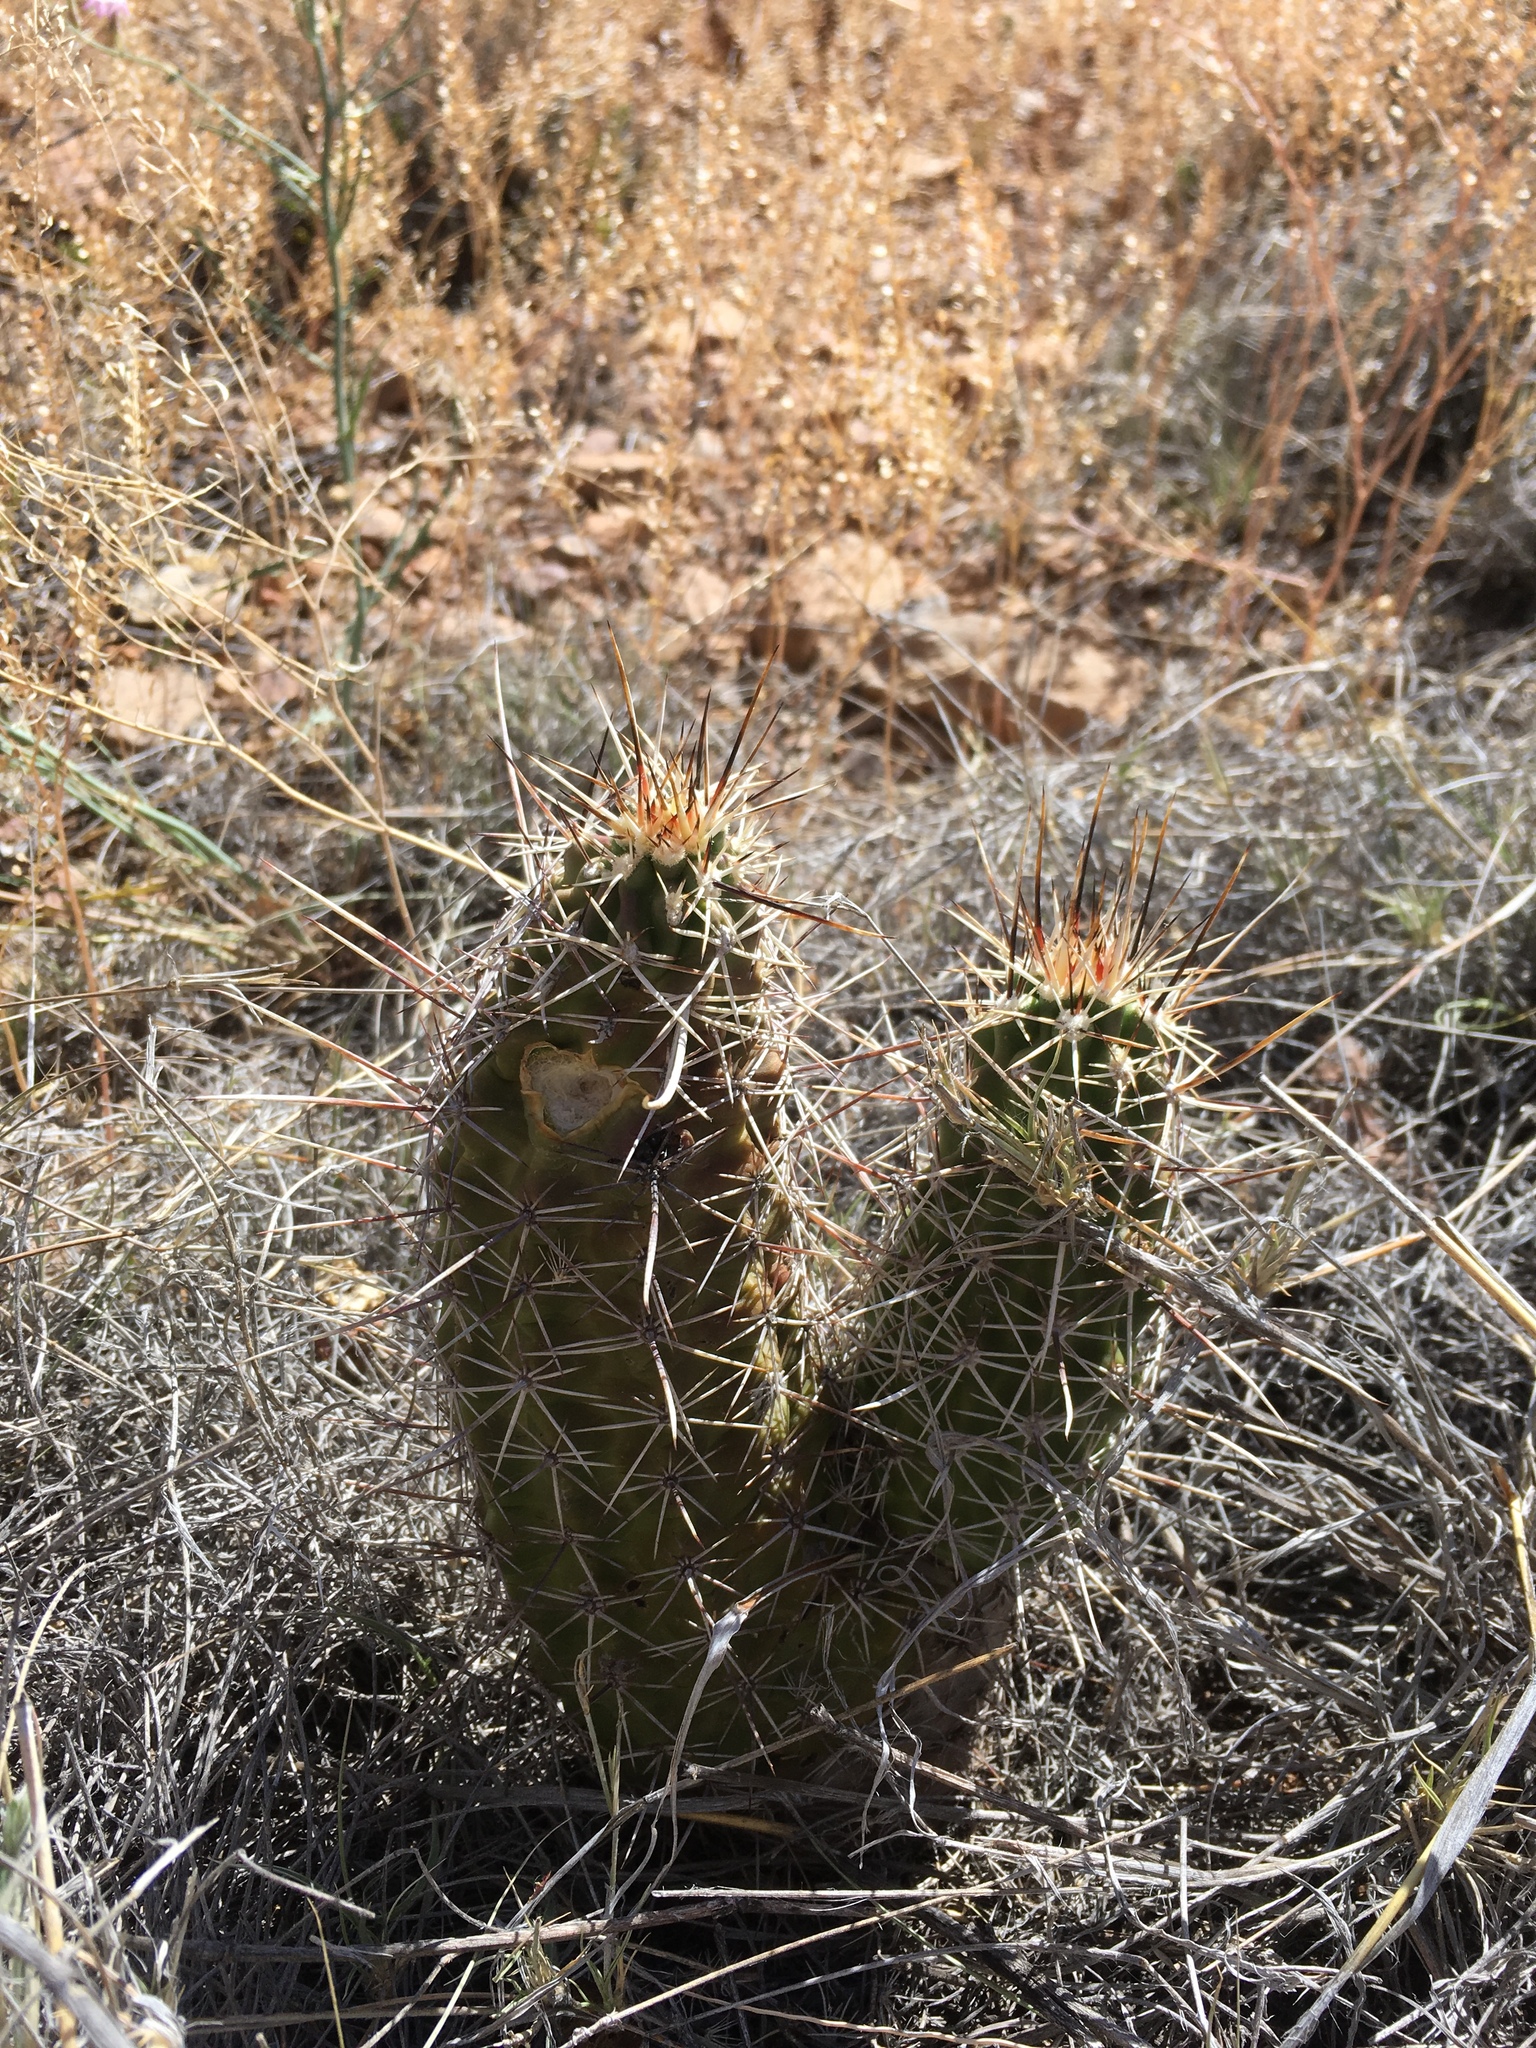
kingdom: Plantae
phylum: Tracheophyta
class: Magnoliopsida
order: Caryophyllales
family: Cactaceae
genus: Echinocereus
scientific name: Echinocereus fendleri
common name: Fendler's hedgehog cactus
